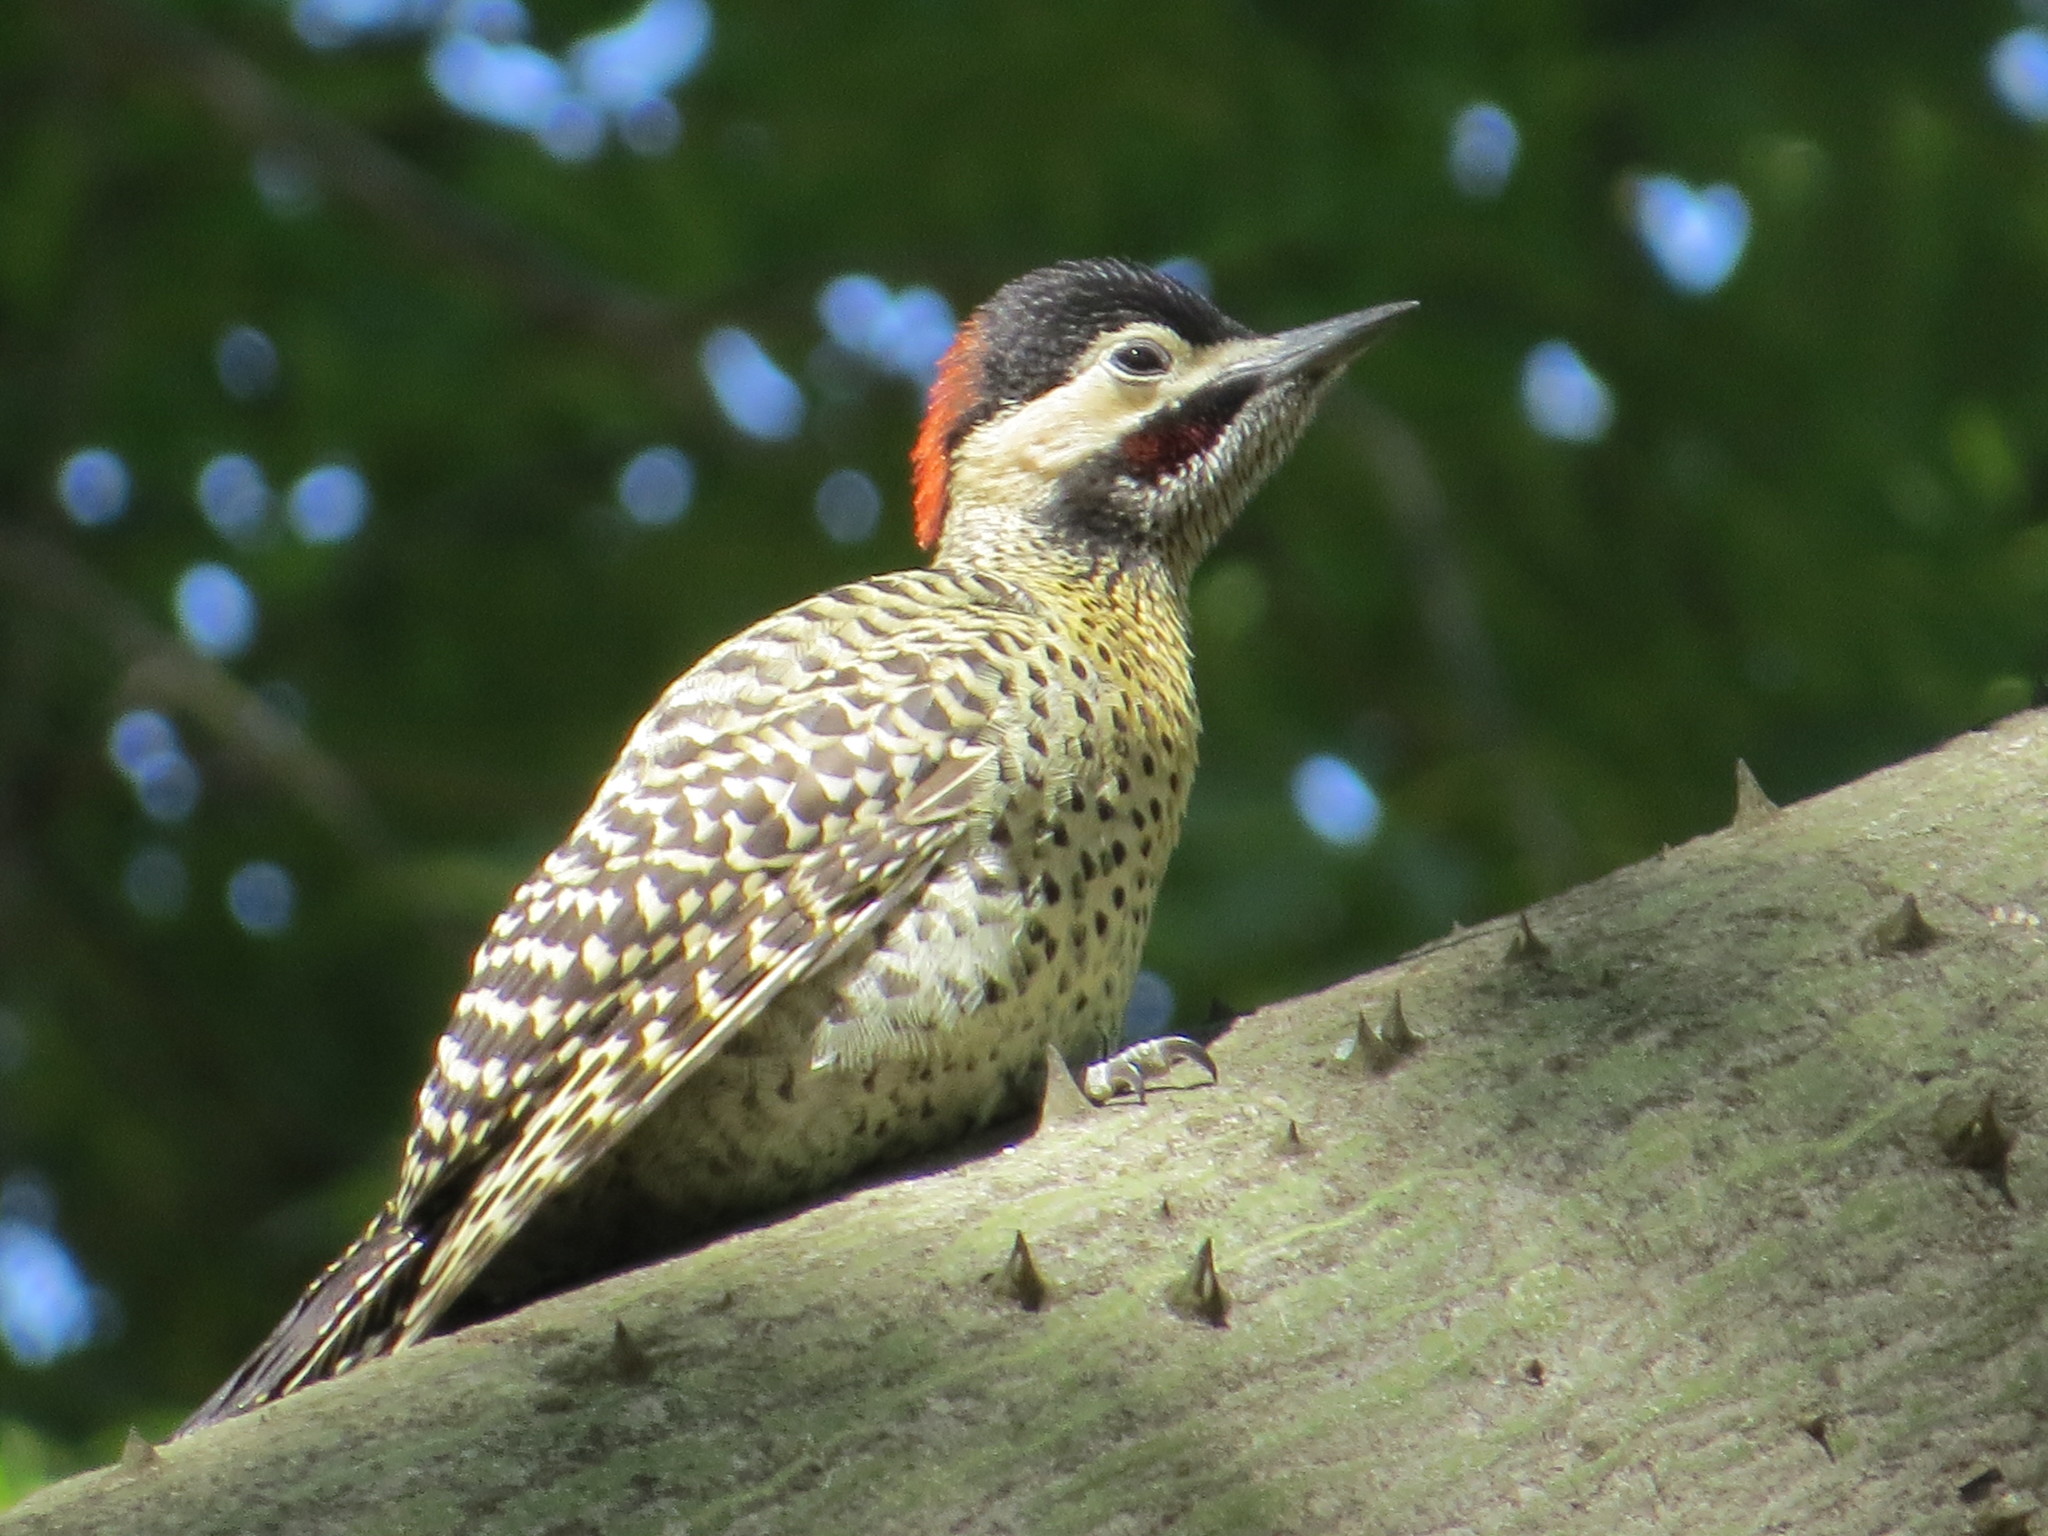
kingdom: Animalia
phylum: Chordata
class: Aves
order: Piciformes
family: Picidae
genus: Colaptes
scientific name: Colaptes melanochloros
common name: Green-barred woodpecker
